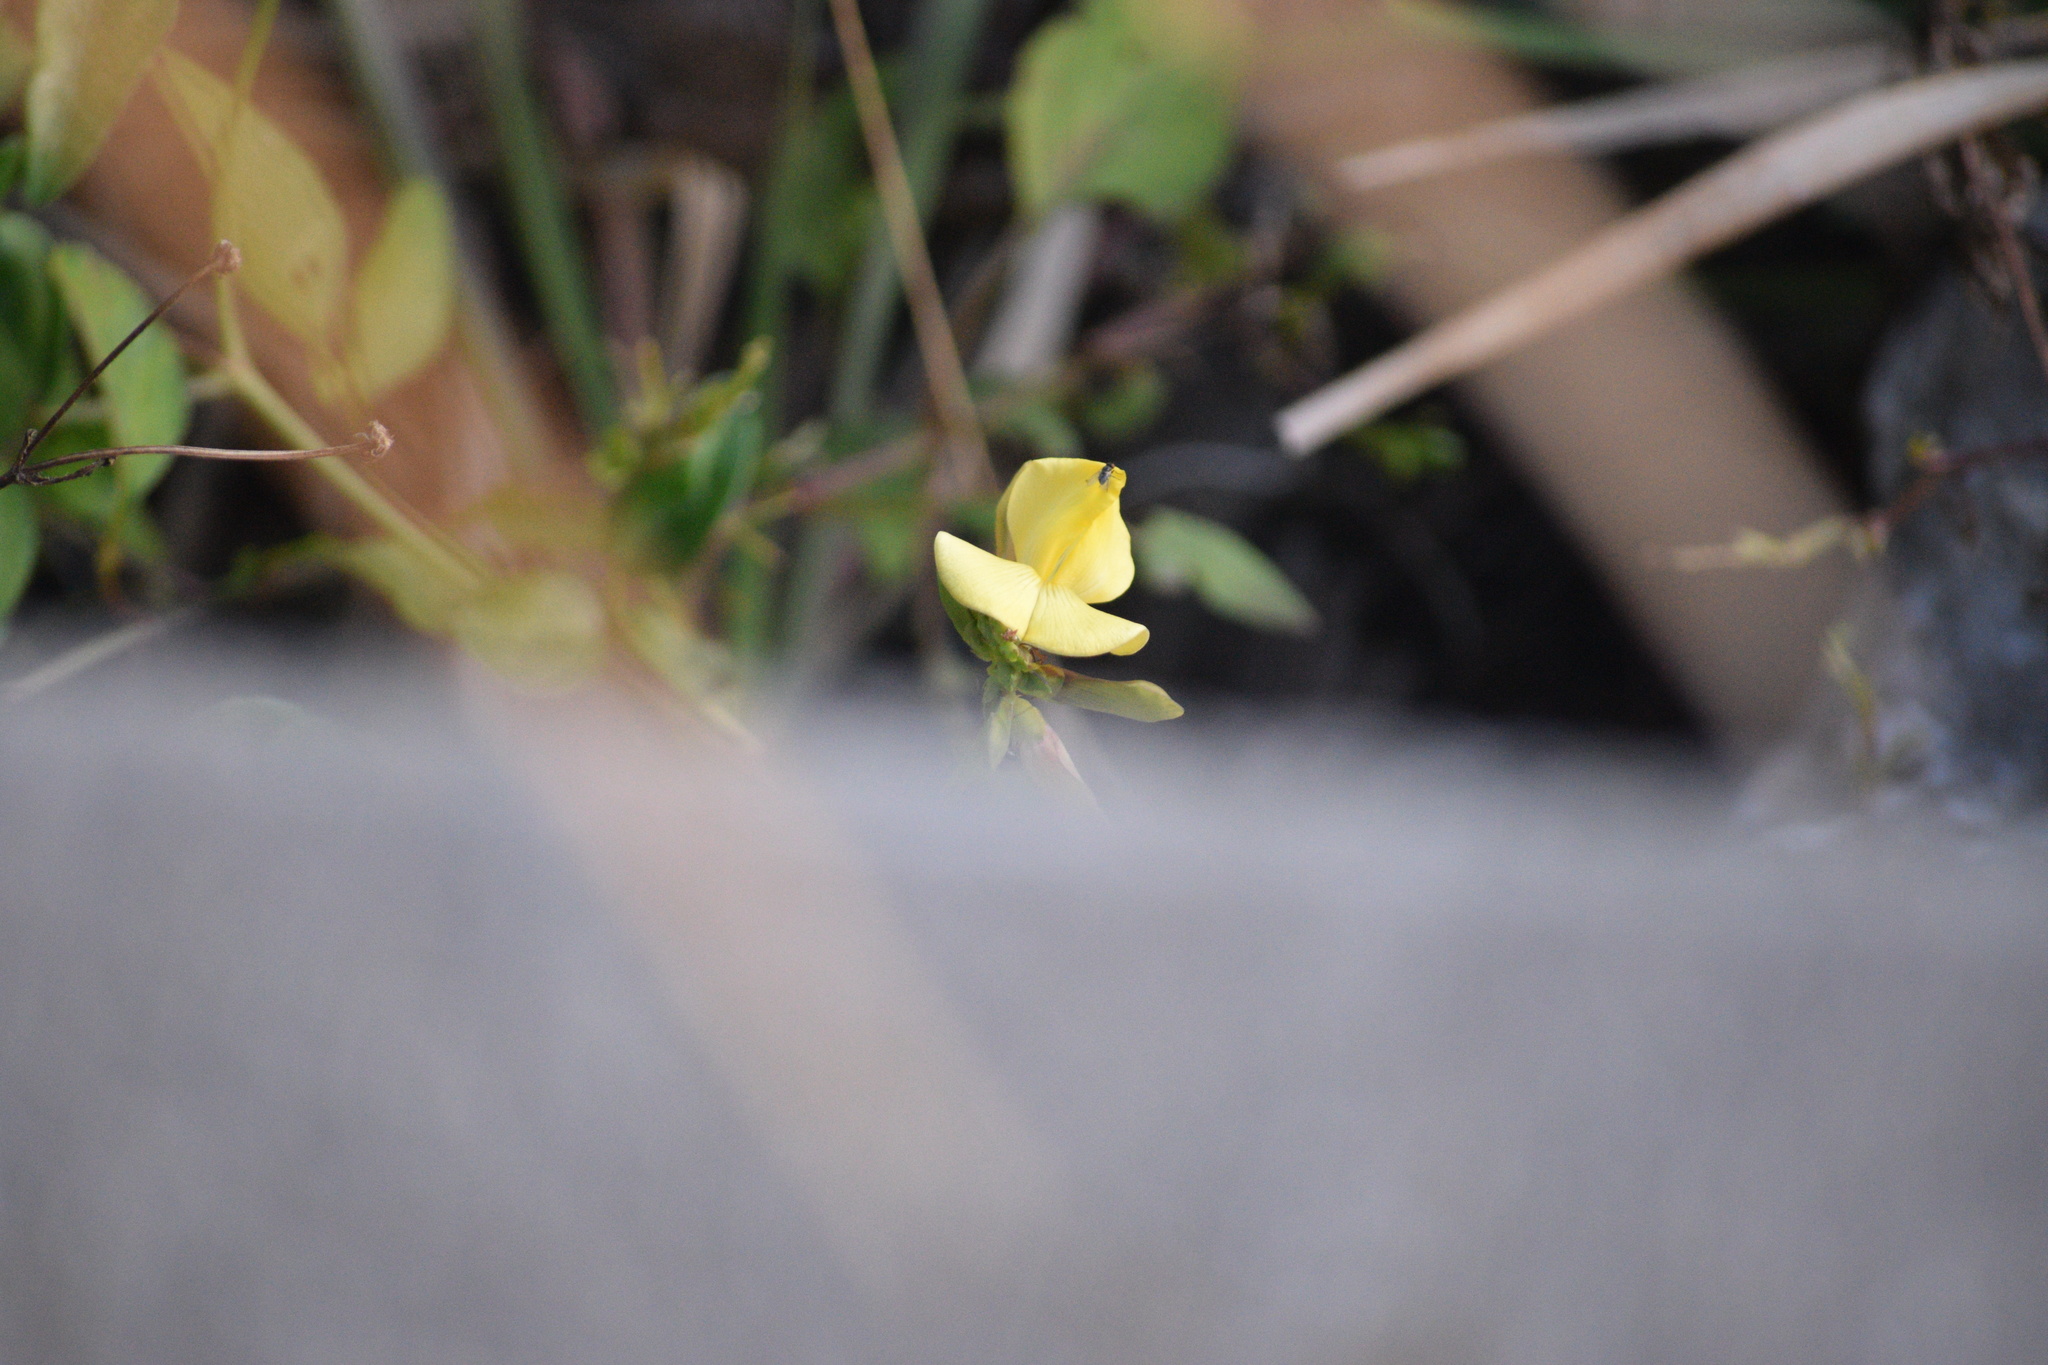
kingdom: Plantae
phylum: Tracheophyta
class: Magnoliopsida
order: Fabales
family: Fabaceae
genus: Vigna
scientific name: Vigna luteola
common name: Hairypod cowpea
